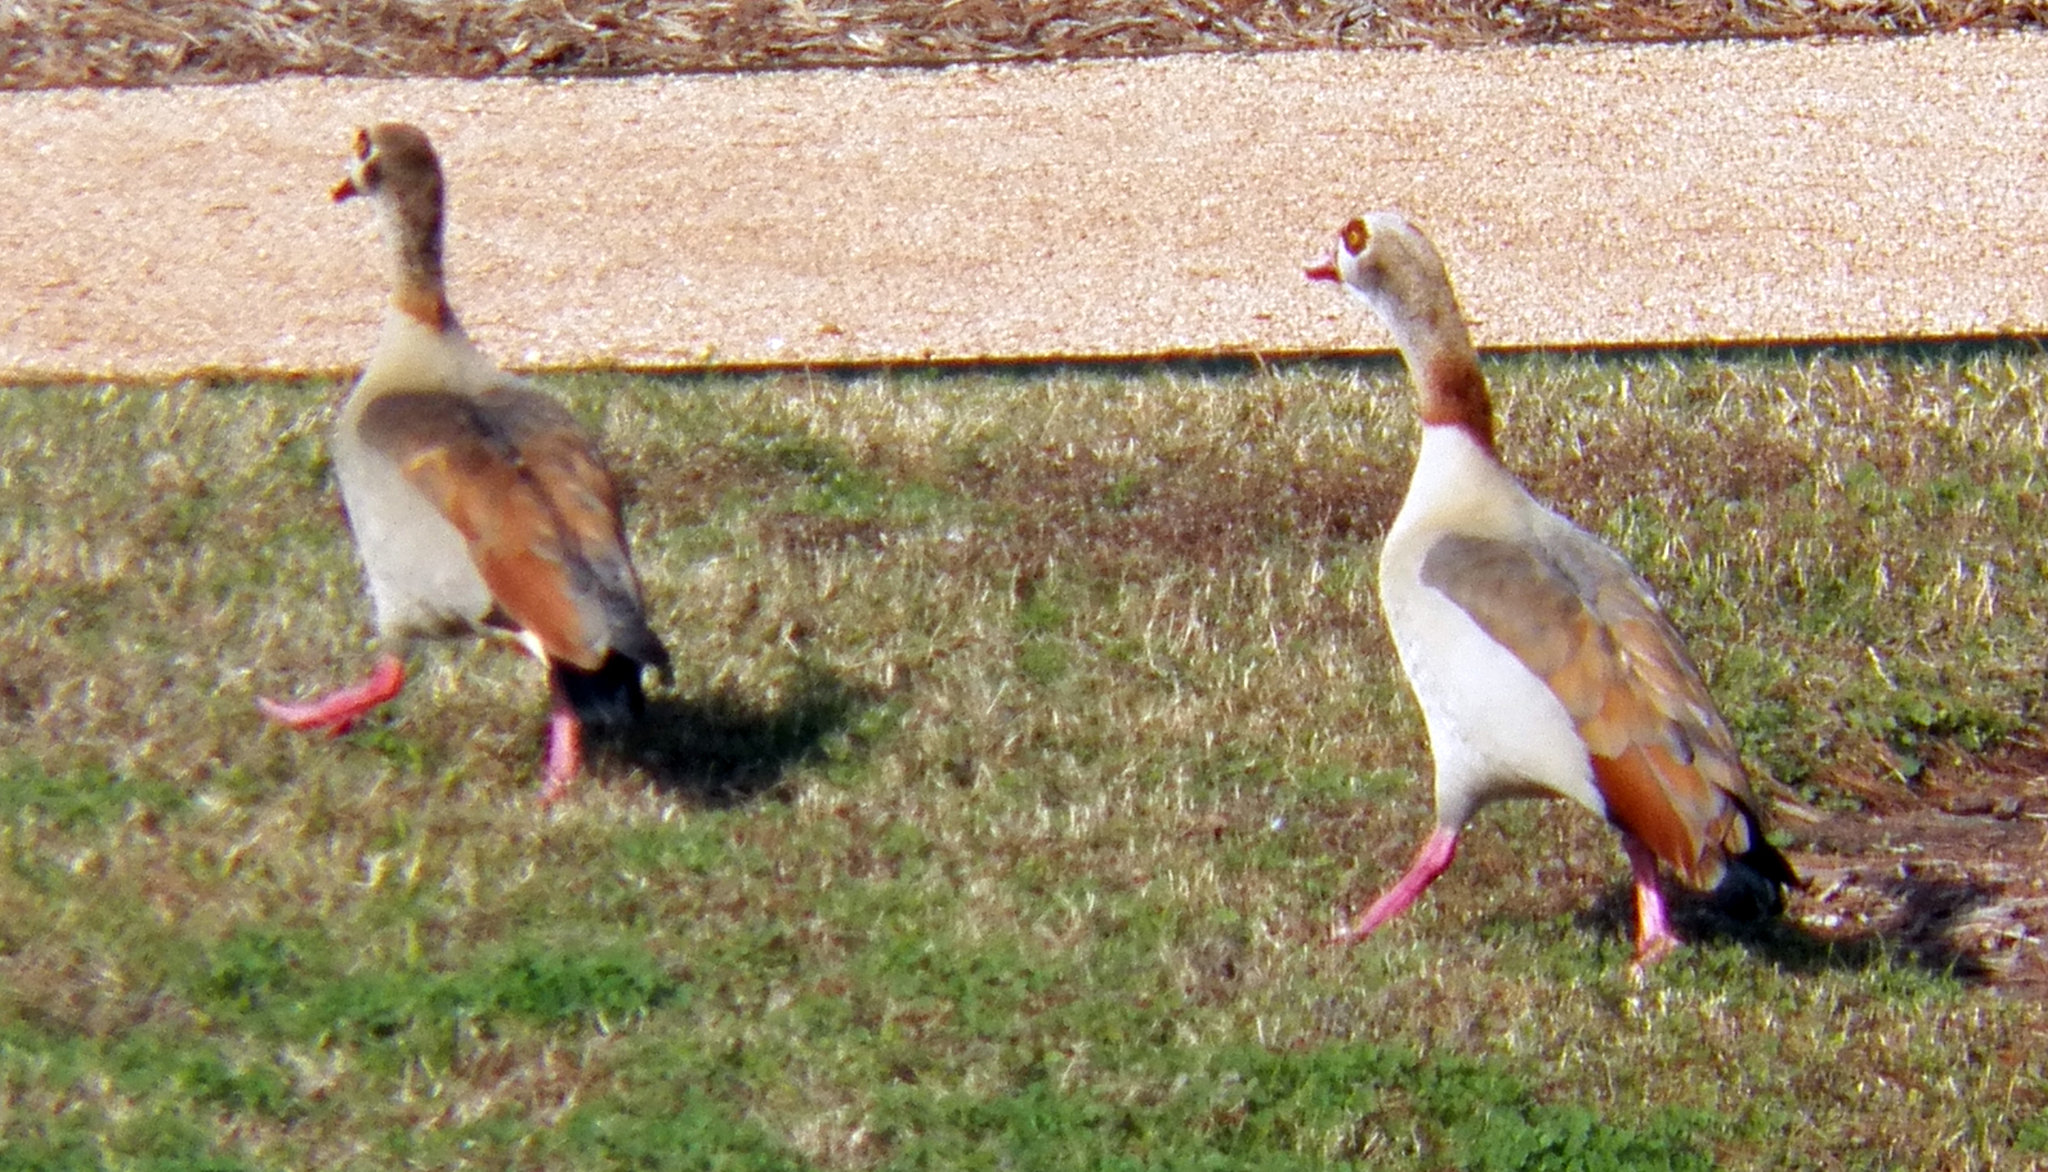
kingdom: Animalia
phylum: Chordata
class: Aves
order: Anseriformes
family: Anatidae
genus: Alopochen
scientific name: Alopochen aegyptiaca
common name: Egyptian goose
